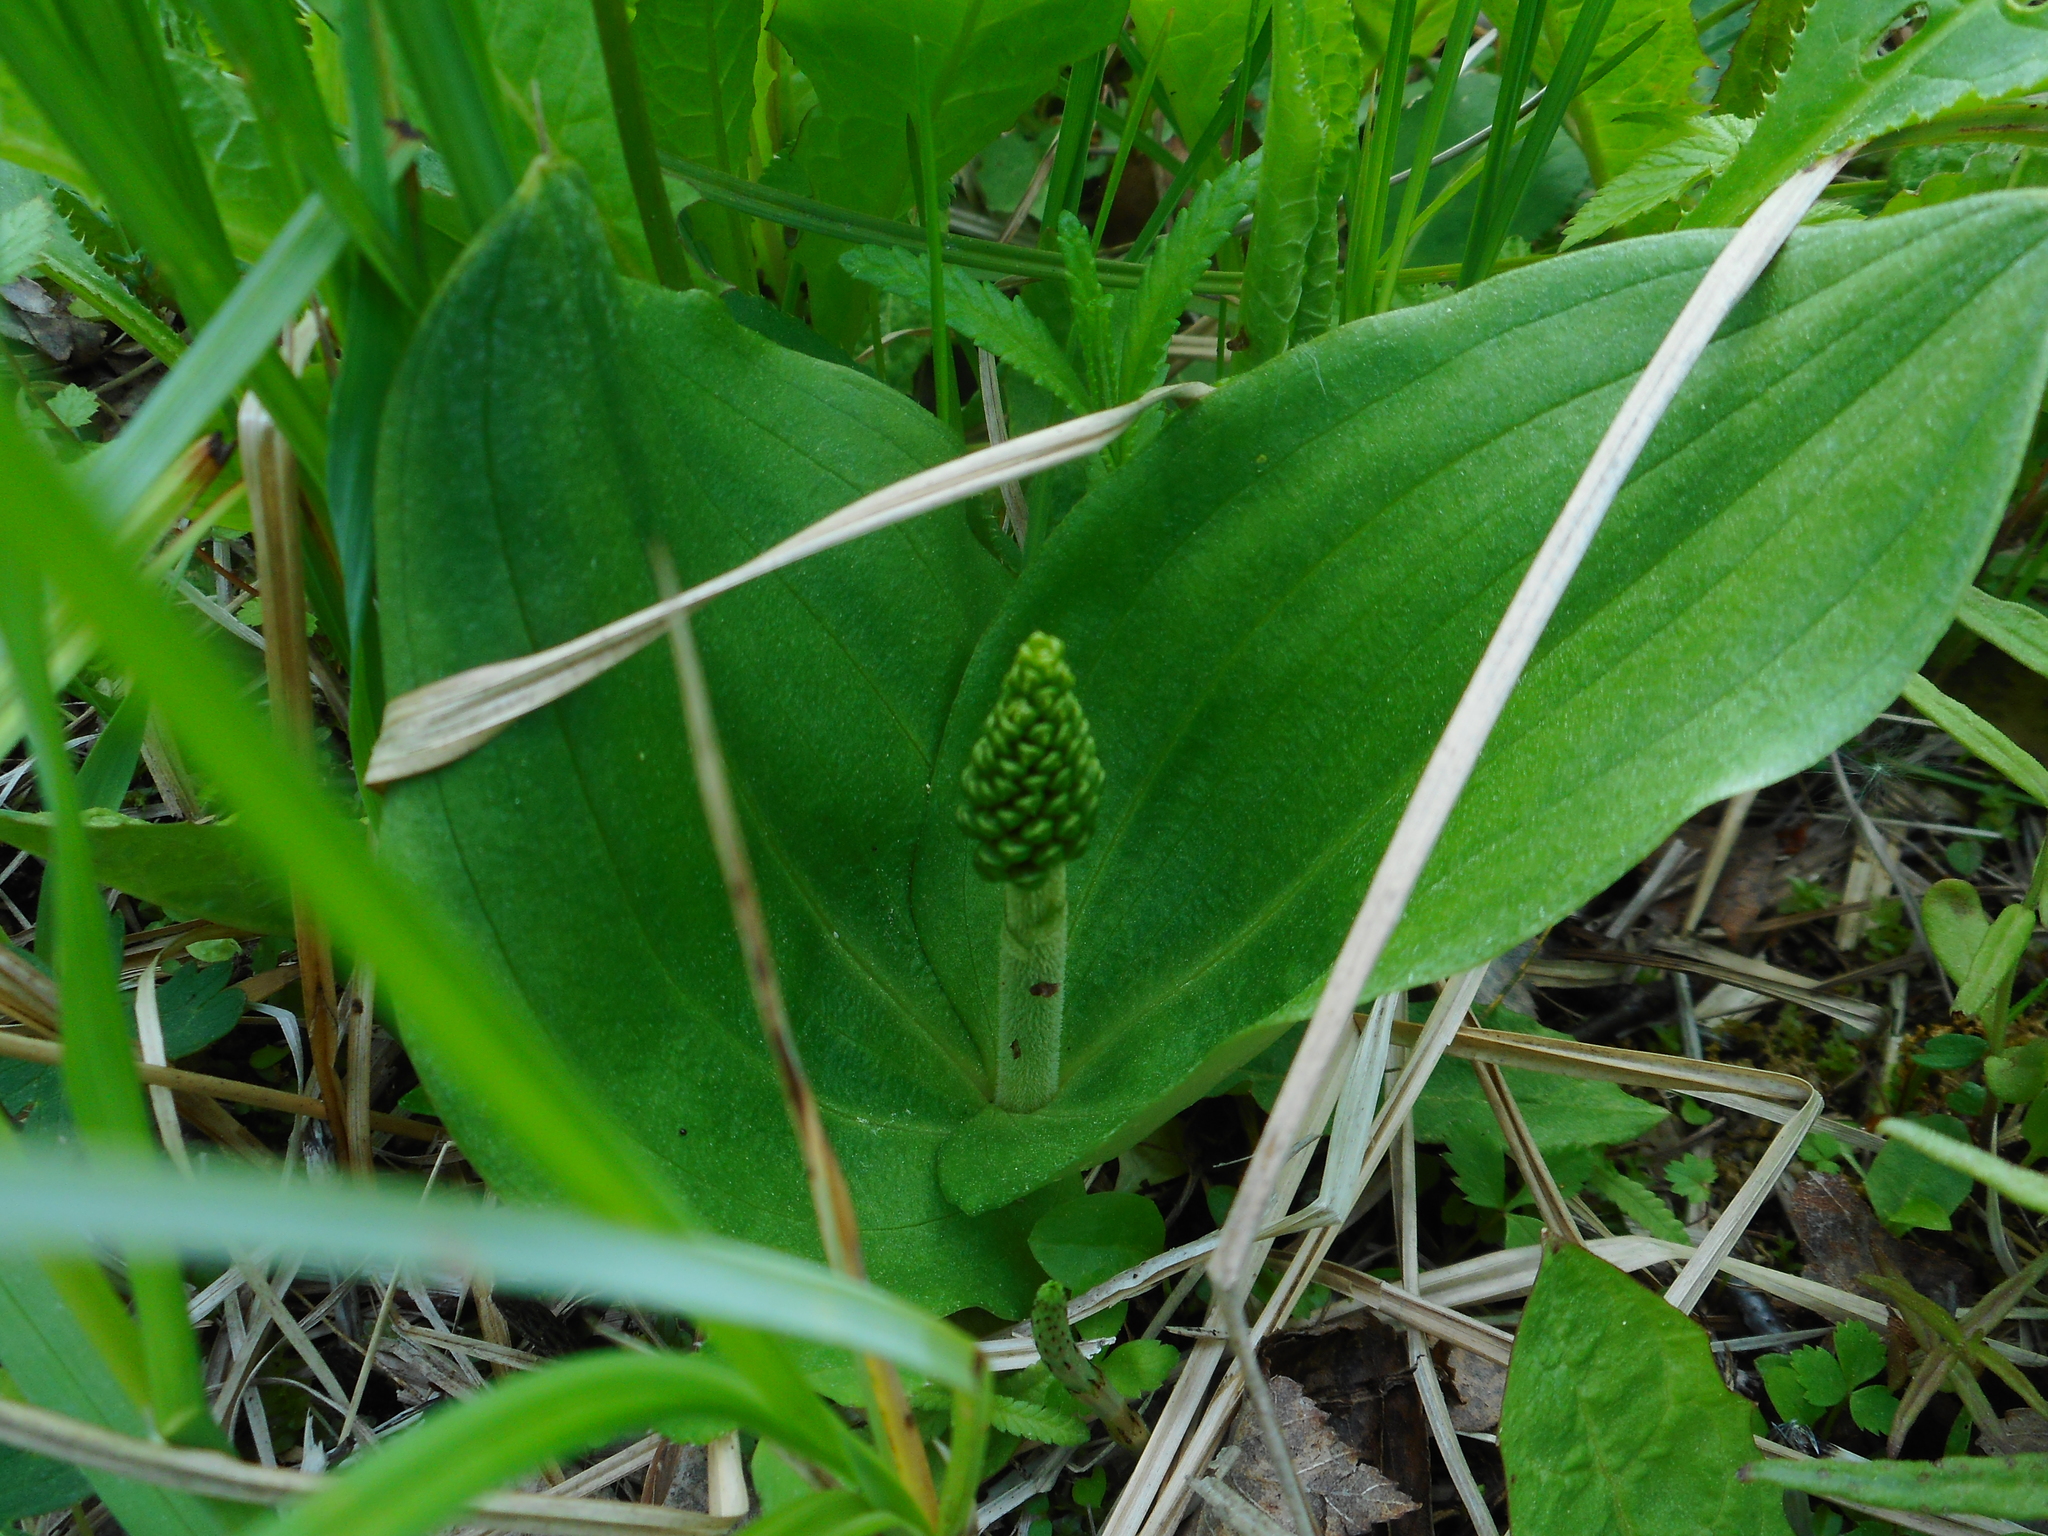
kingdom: Plantae
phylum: Tracheophyta
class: Liliopsida
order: Asparagales
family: Orchidaceae
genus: Neottia
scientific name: Neottia ovata
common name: Common twayblade
